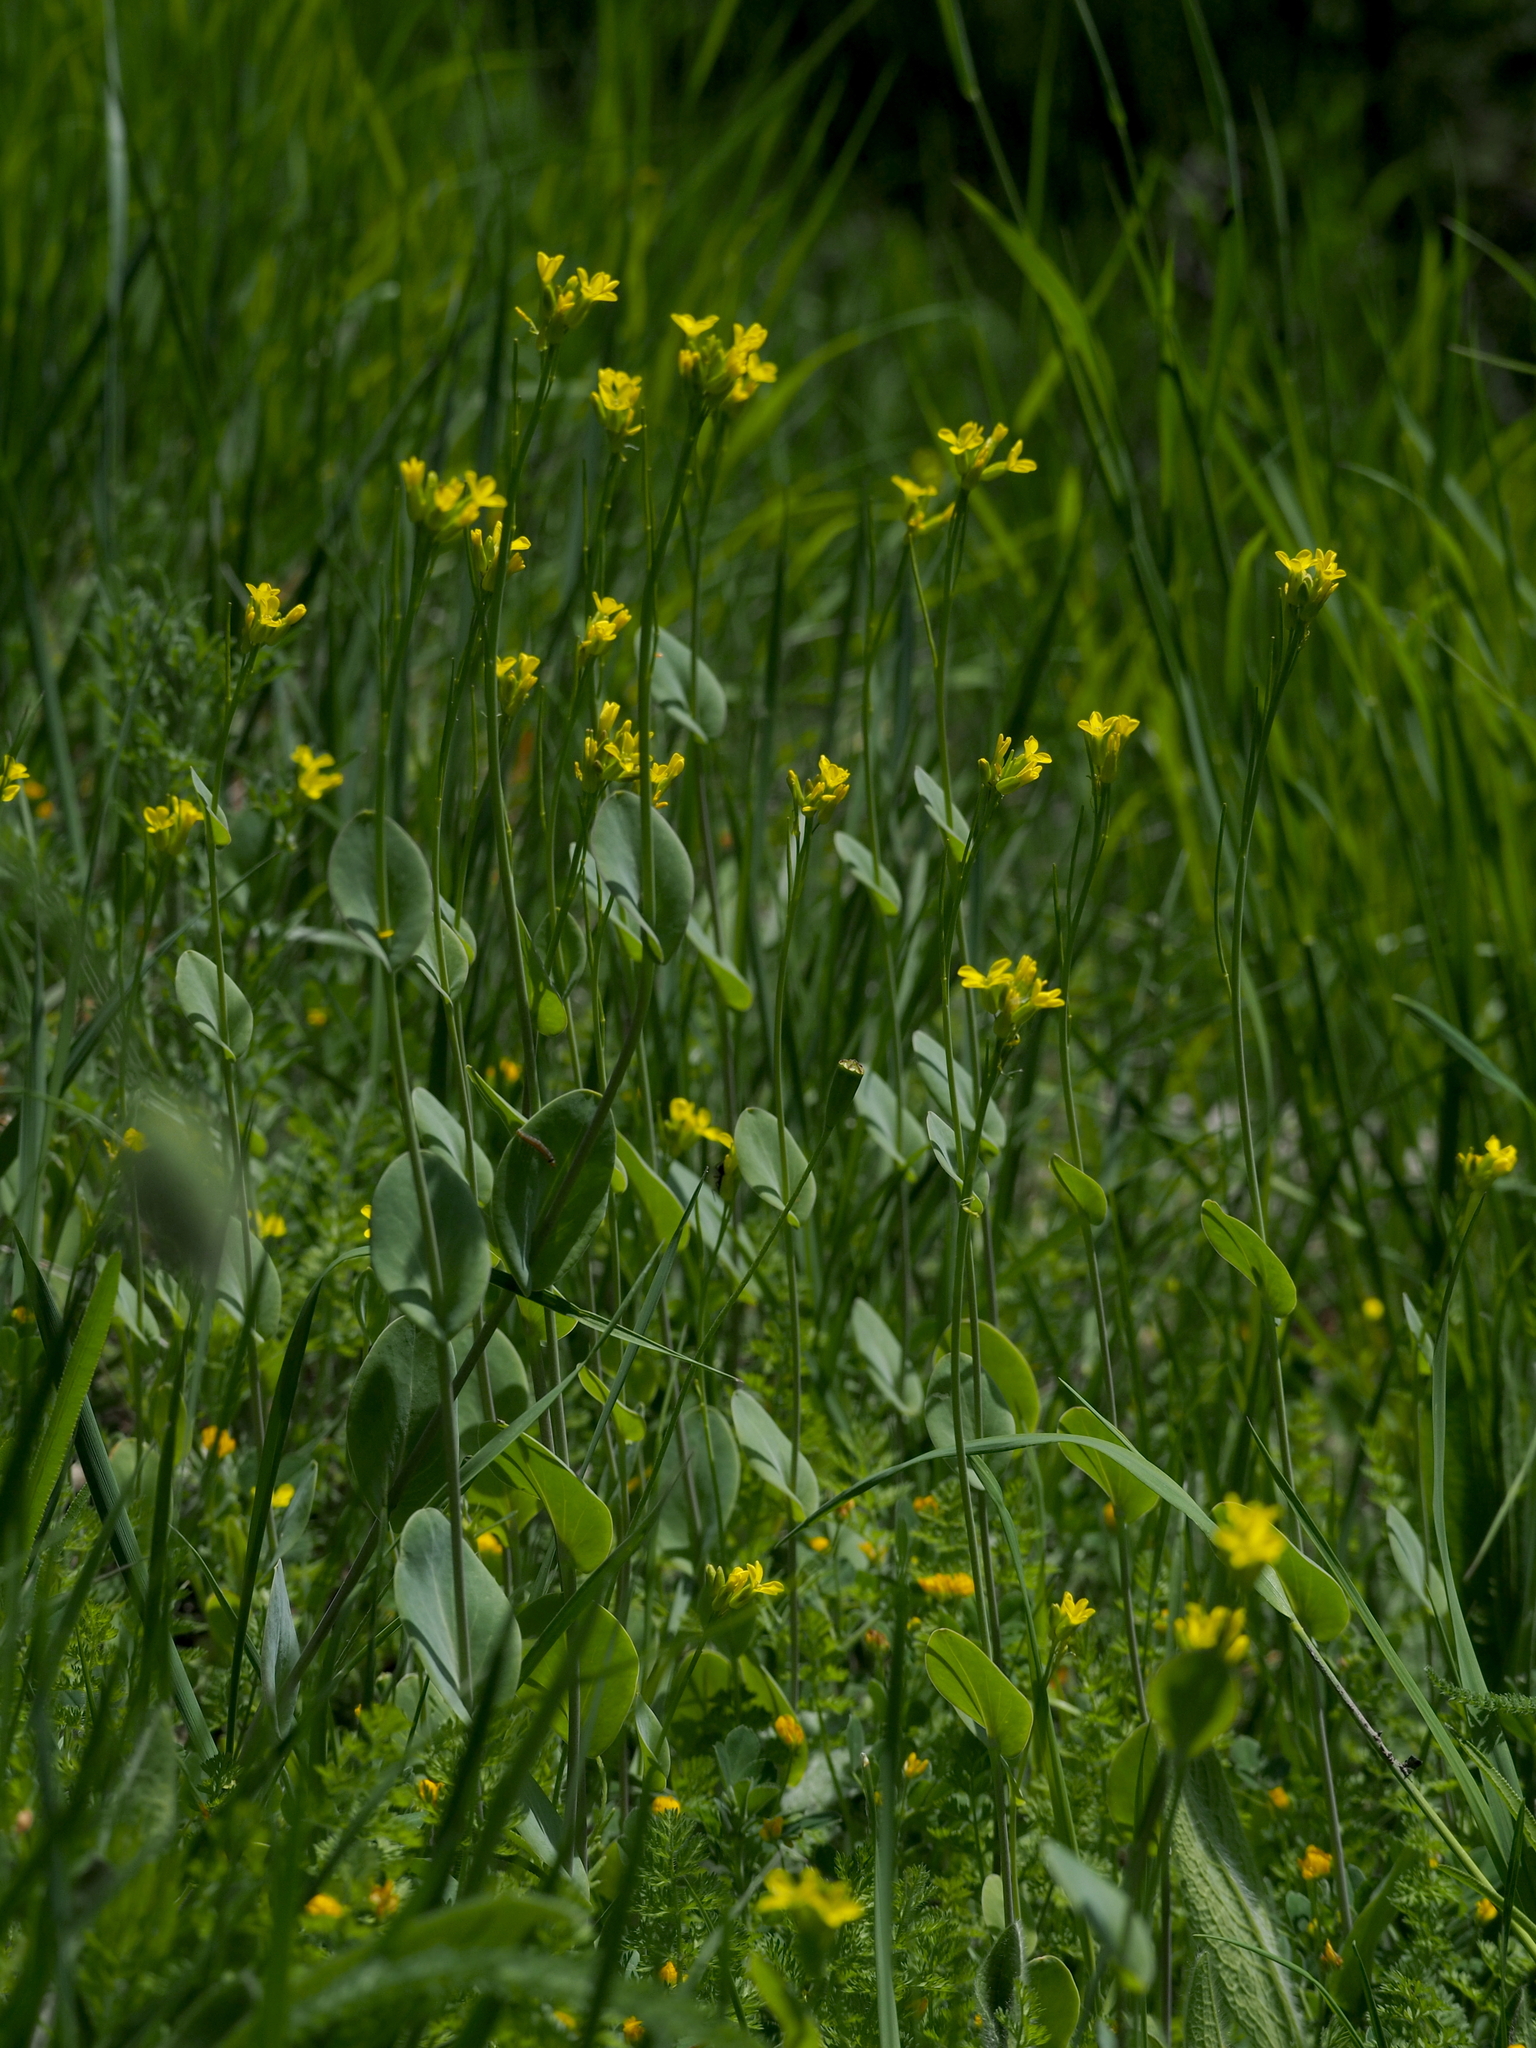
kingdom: Plantae
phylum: Tracheophyta
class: Magnoliopsida
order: Brassicales
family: Brassicaceae
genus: Conringia
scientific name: Conringia austriaca
